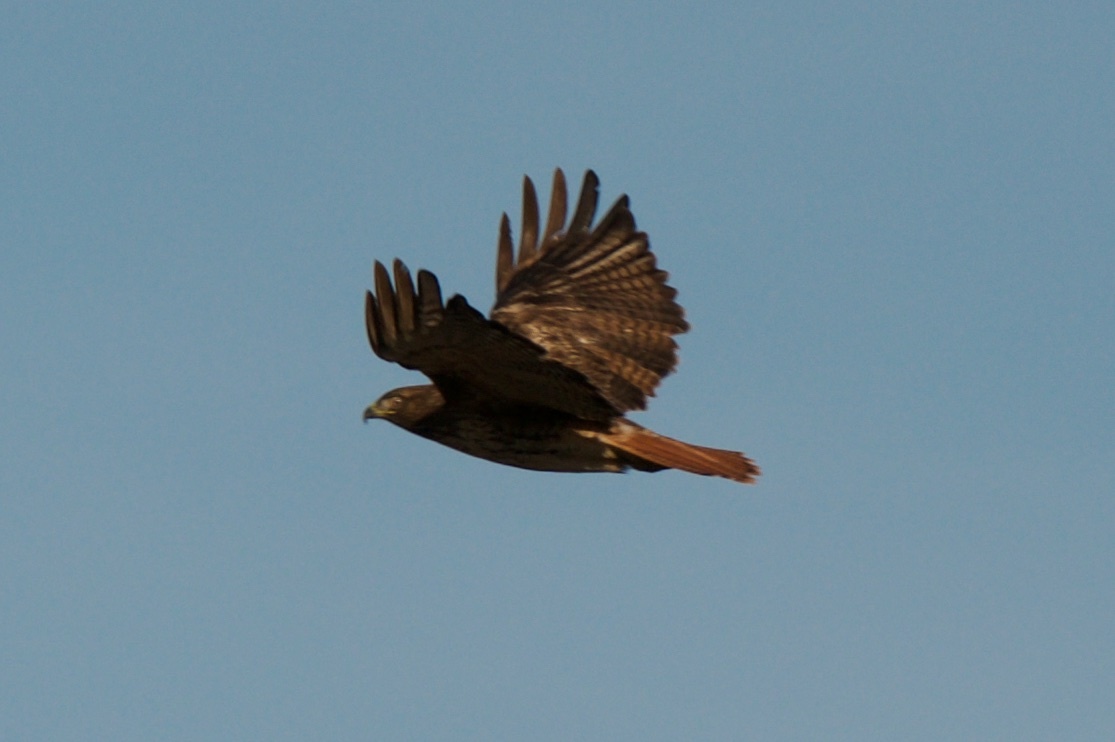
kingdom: Animalia
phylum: Chordata
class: Aves
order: Accipitriformes
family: Accipitridae
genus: Buteo
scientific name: Buteo jamaicensis
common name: Red-tailed hawk
